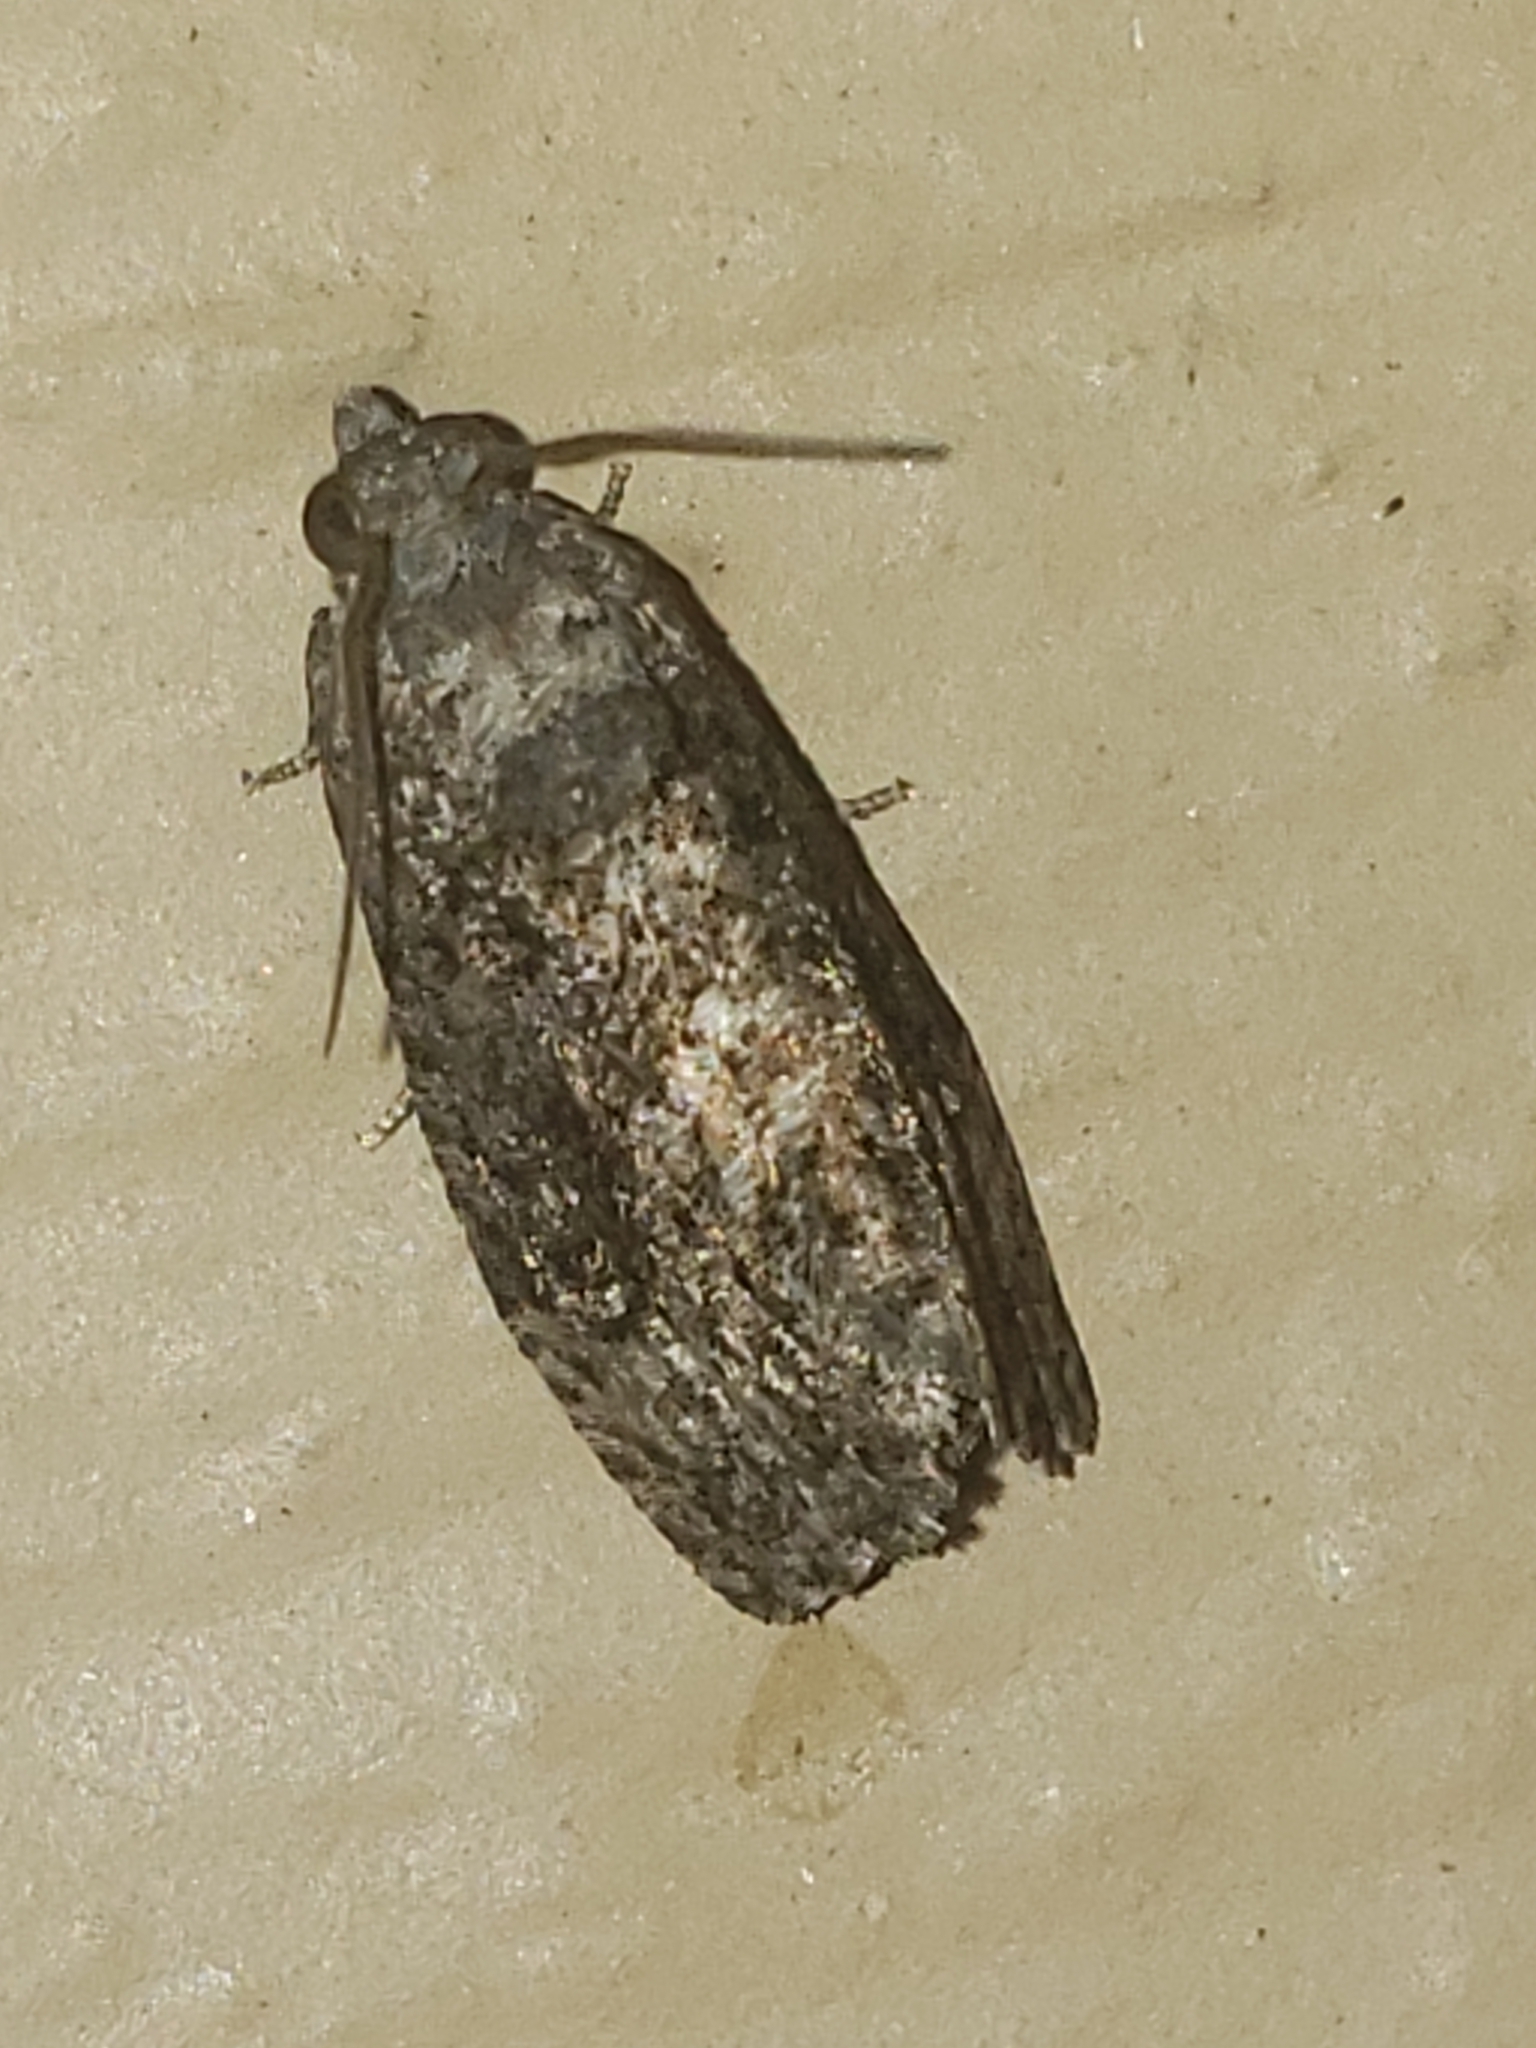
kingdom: Animalia
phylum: Arthropoda
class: Insecta
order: Lepidoptera
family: Tortricidae
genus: Gymnandrosoma
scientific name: Gymnandrosoma punctidiscanum
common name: Dotted ecdytolopha moth
